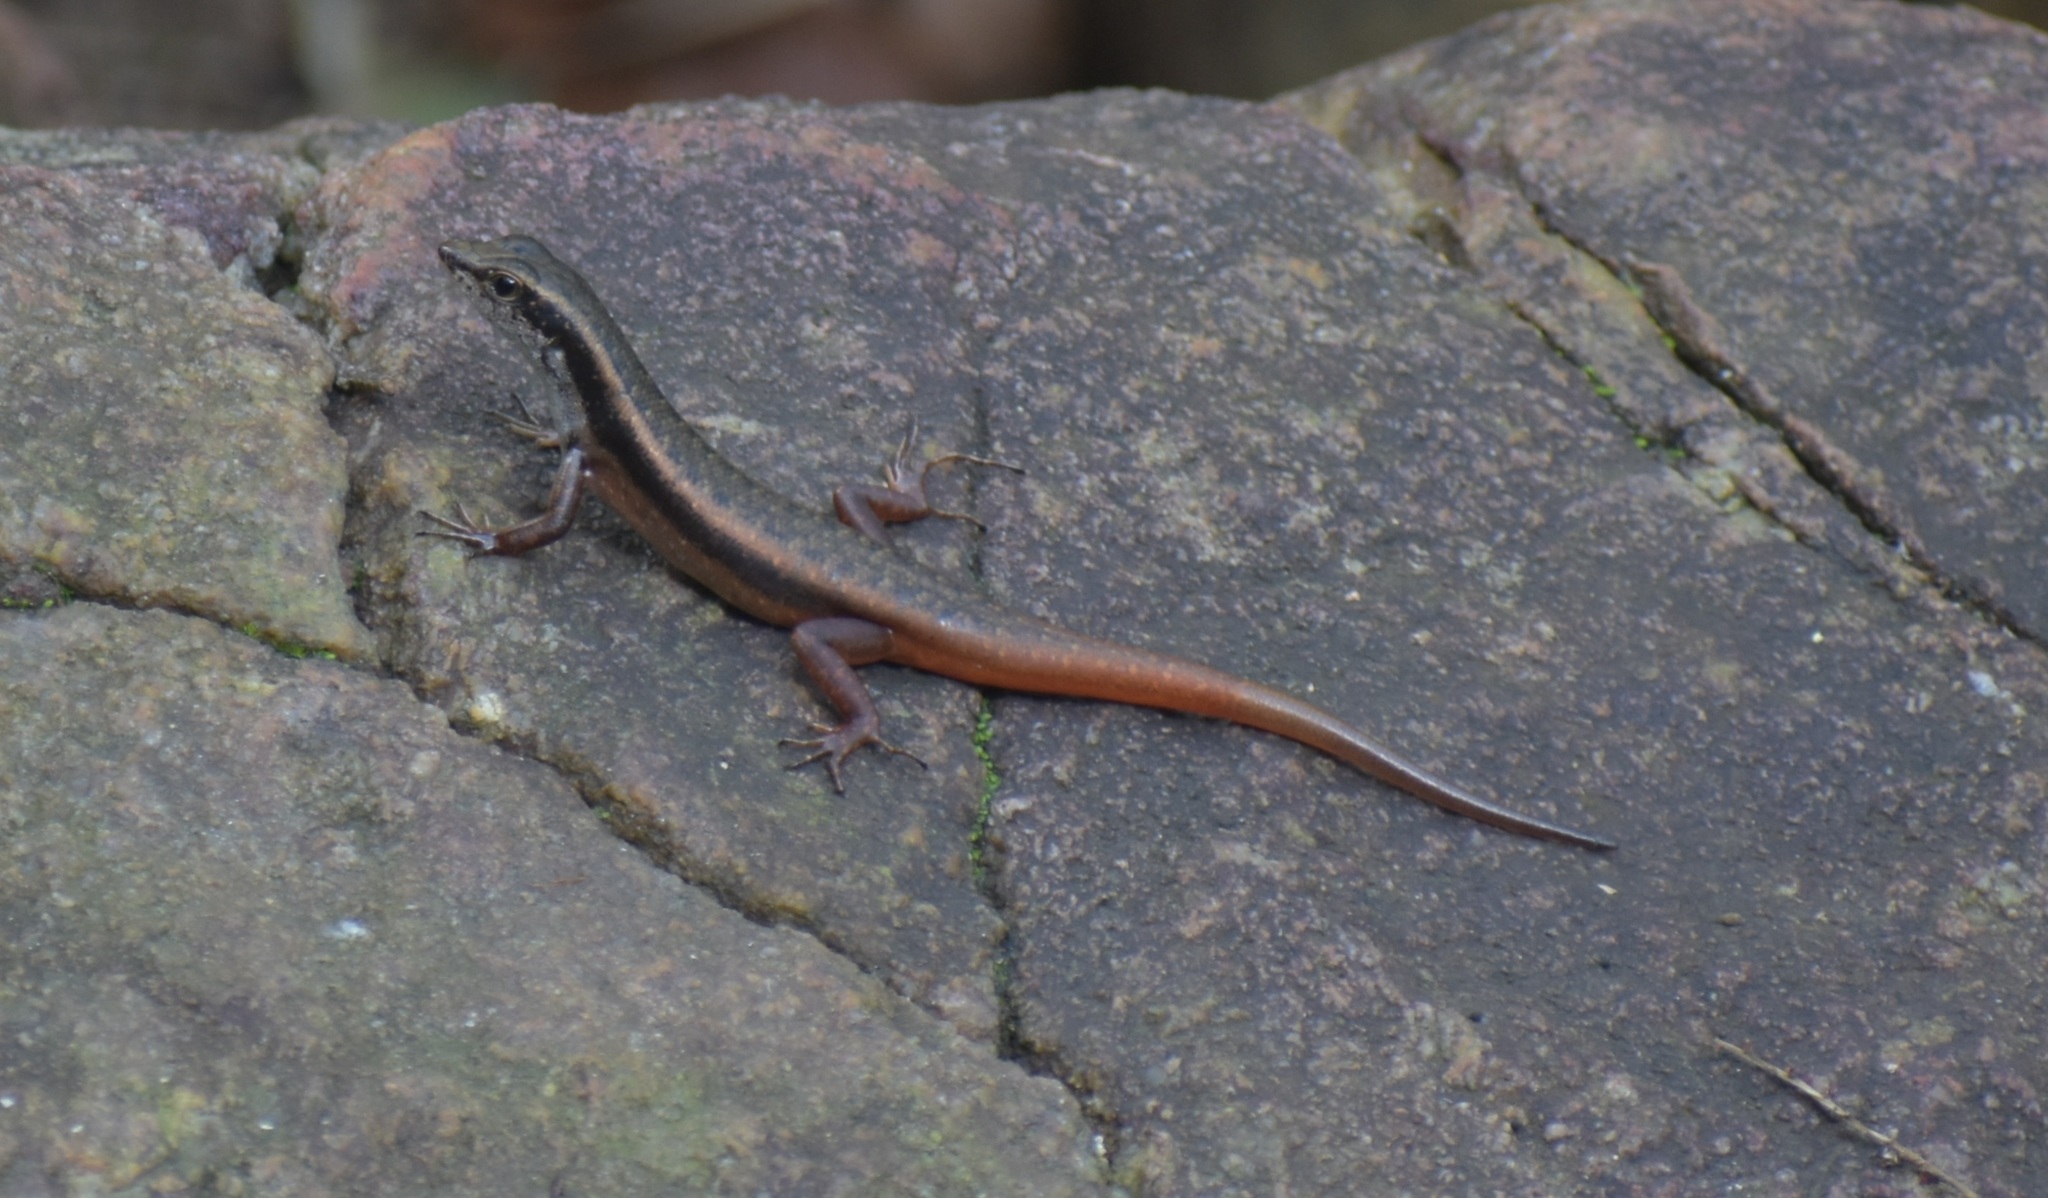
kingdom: Animalia
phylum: Chordata
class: Squamata
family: Scincidae
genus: Sphenomorphus
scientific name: Sphenomorphus dussumieri
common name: Dussumier's forest skink
